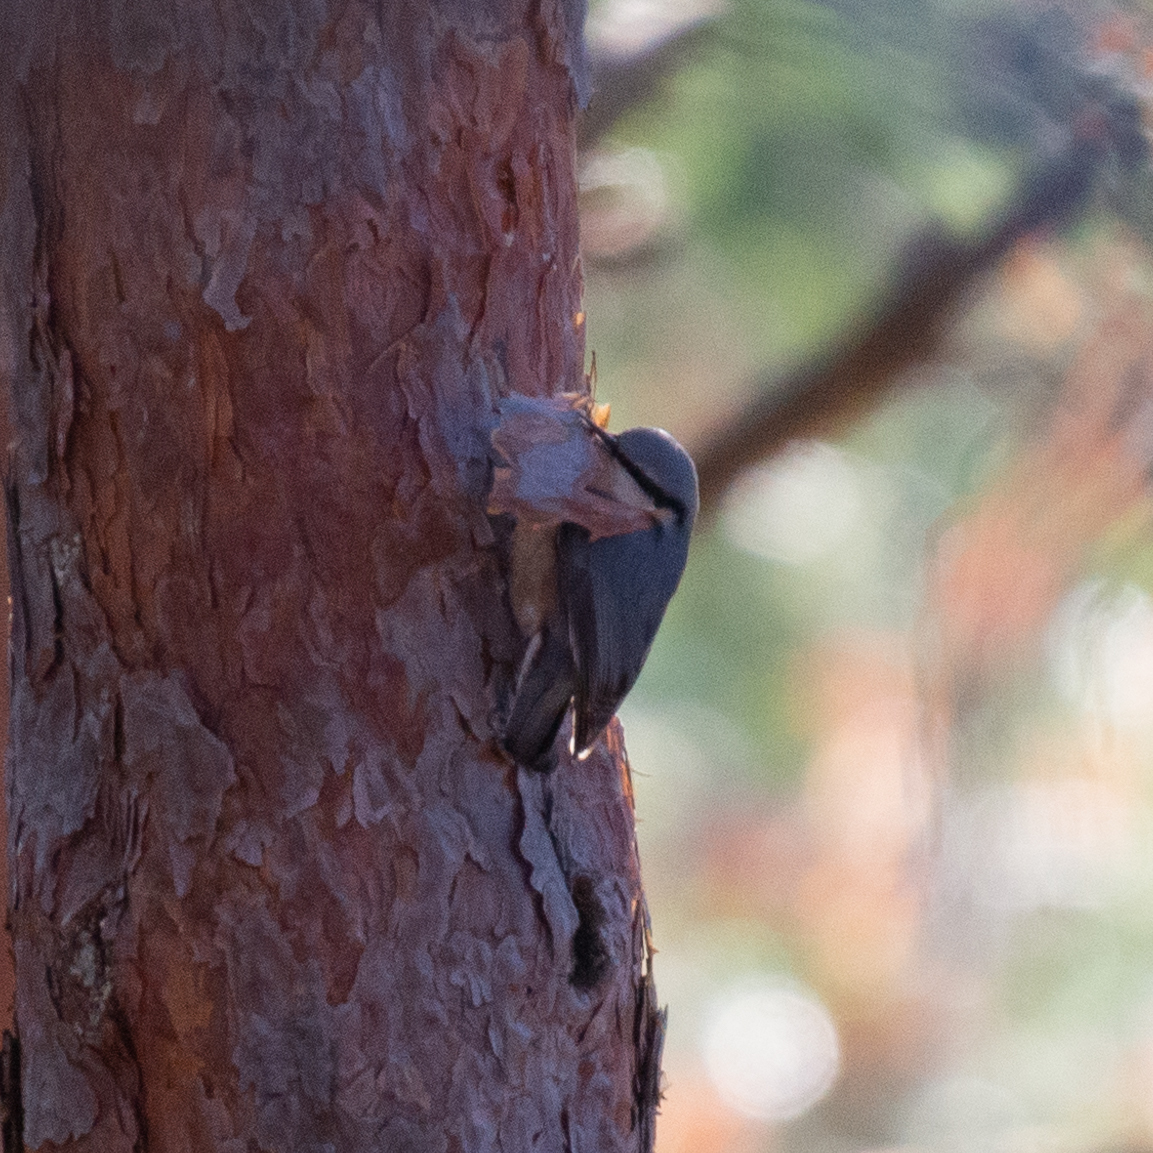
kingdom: Animalia
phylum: Chordata
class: Aves
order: Passeriformes
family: Sittidae
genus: Sitta
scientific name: Sitta europaea
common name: Eurasian nuthatch
